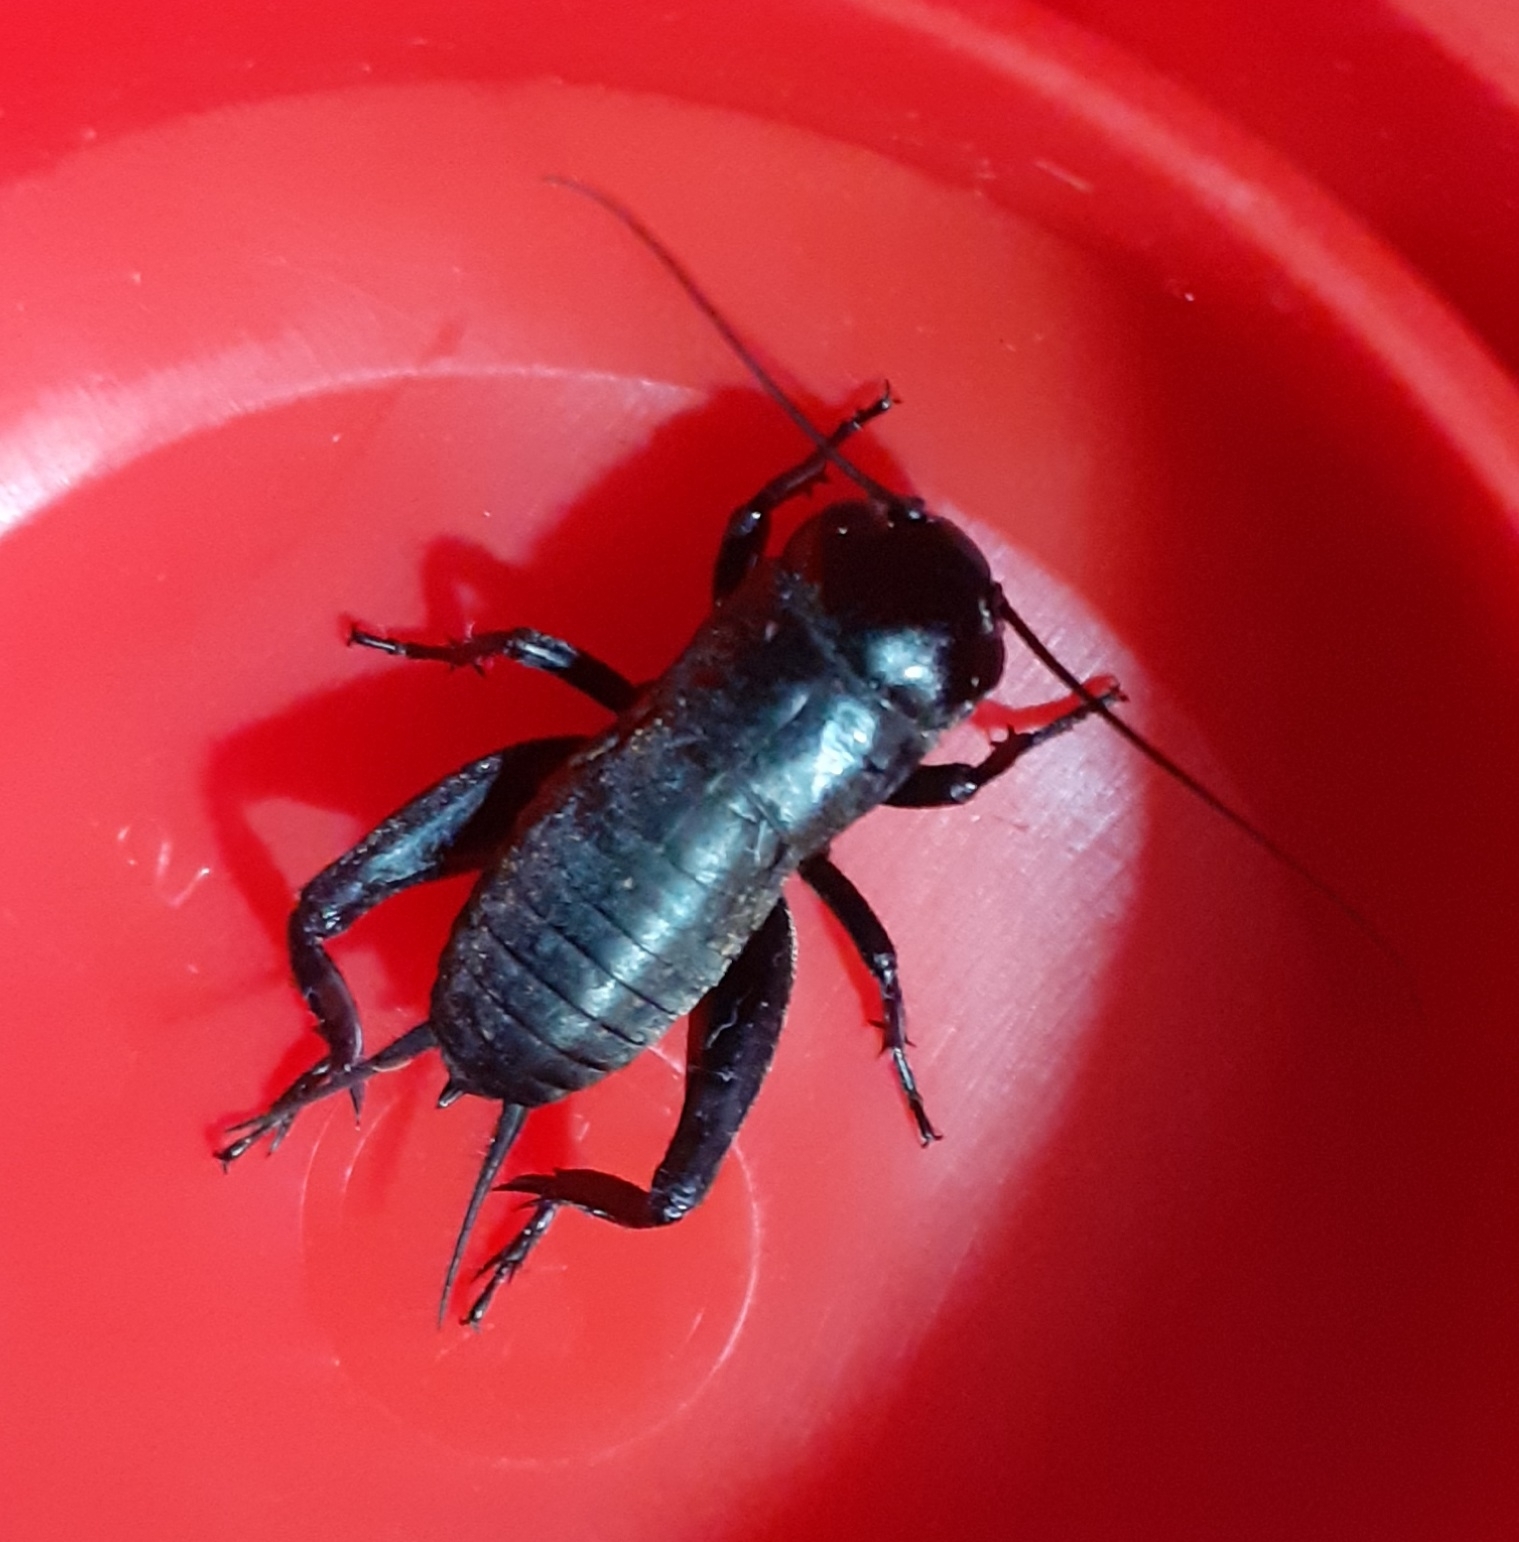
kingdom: Animalia
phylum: Arthropoda
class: Insecta
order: Orthoptera
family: Gryllidae
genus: Gryllus
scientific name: Gryllus campestris
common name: Field cricket
